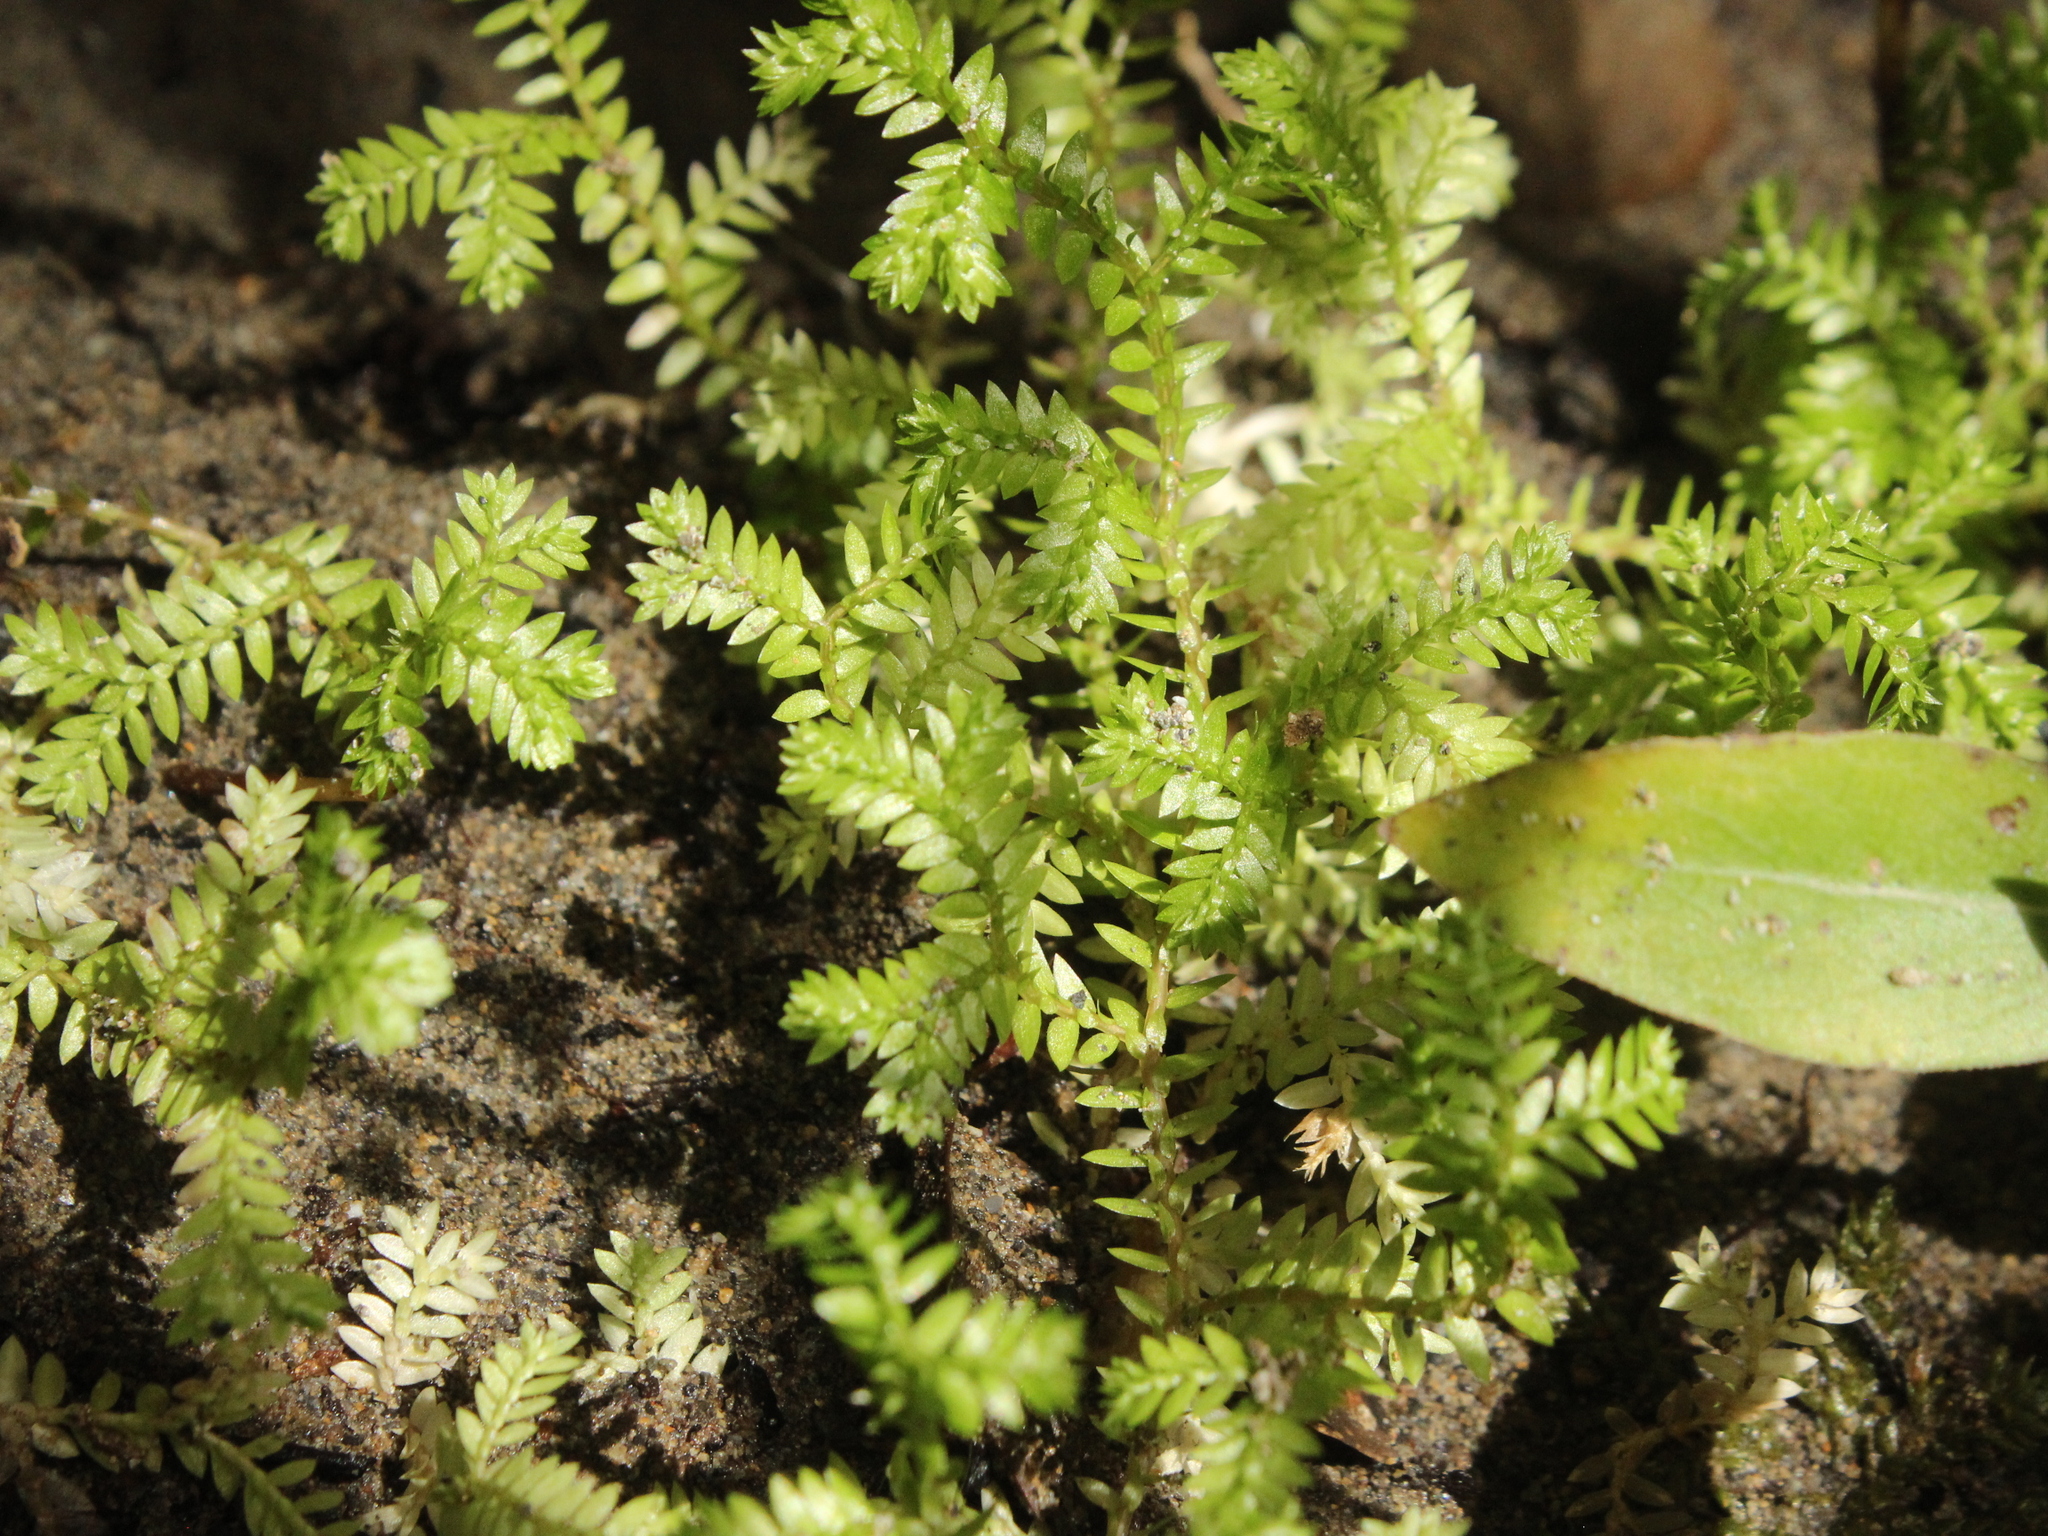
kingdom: Plantae
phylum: Tracheophyta
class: Lycopodiopsida
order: Selaginellales
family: Selaginellaceae
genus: Selaginella
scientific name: Selaginella kraussiana
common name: Krauss' spikemoss
